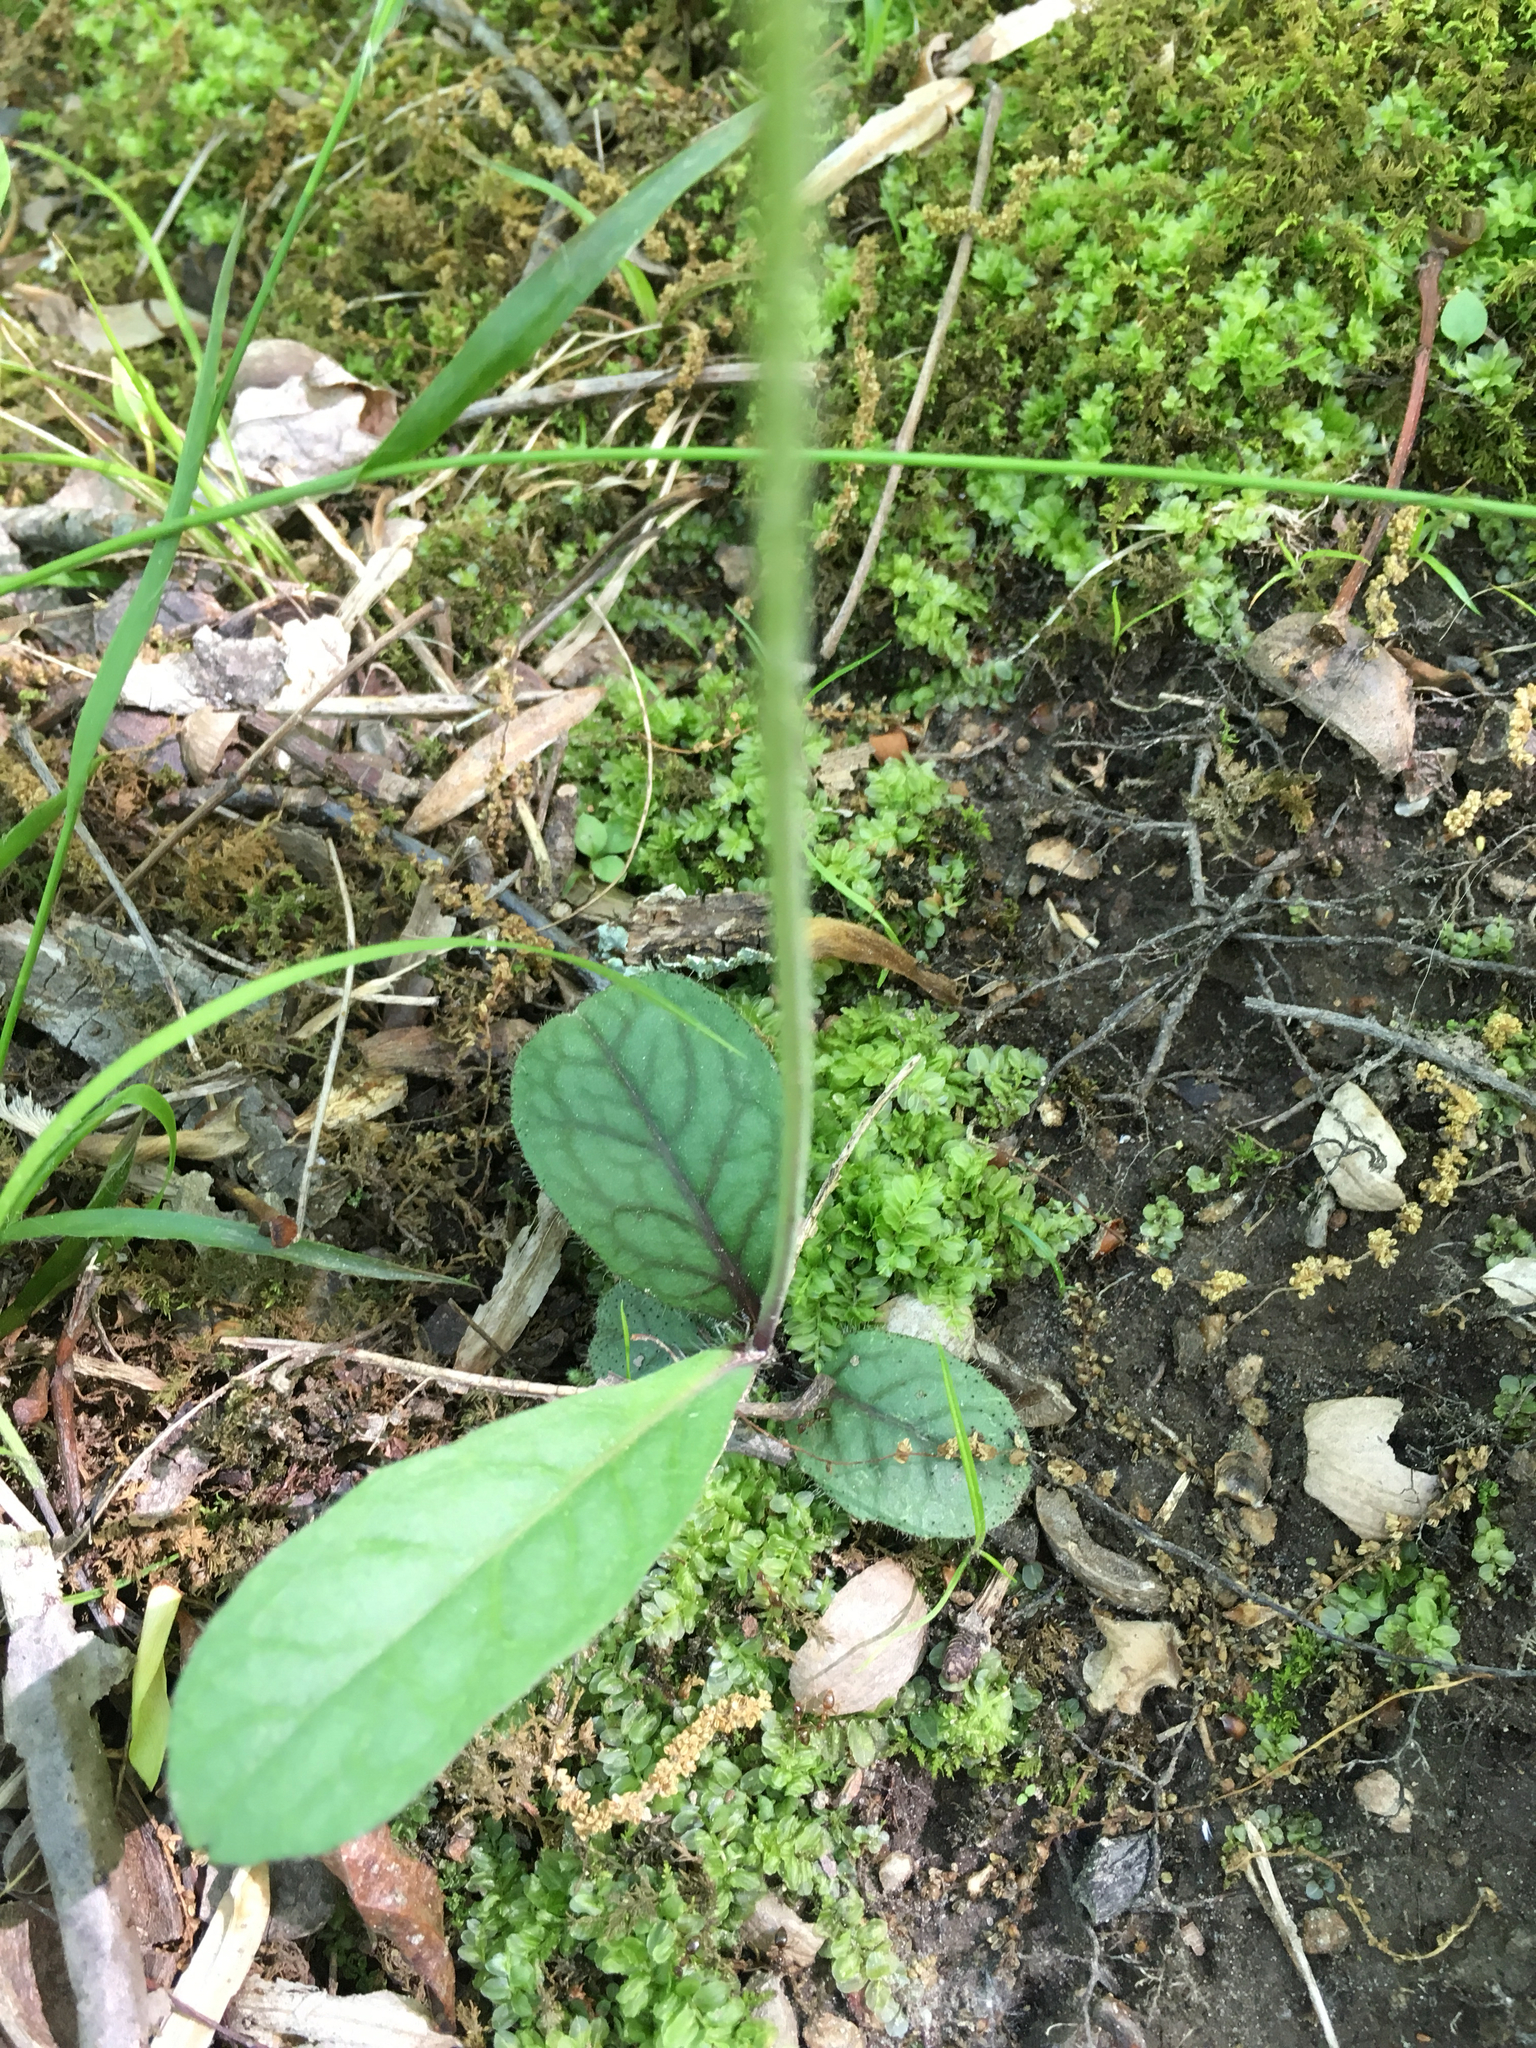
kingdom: Plantae
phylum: Tracheophyta
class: Magnoliopsida
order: Asterales
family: Asteraceae
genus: Hieracium
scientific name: Hieracium venosum
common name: Rattlesnake hawkweed
